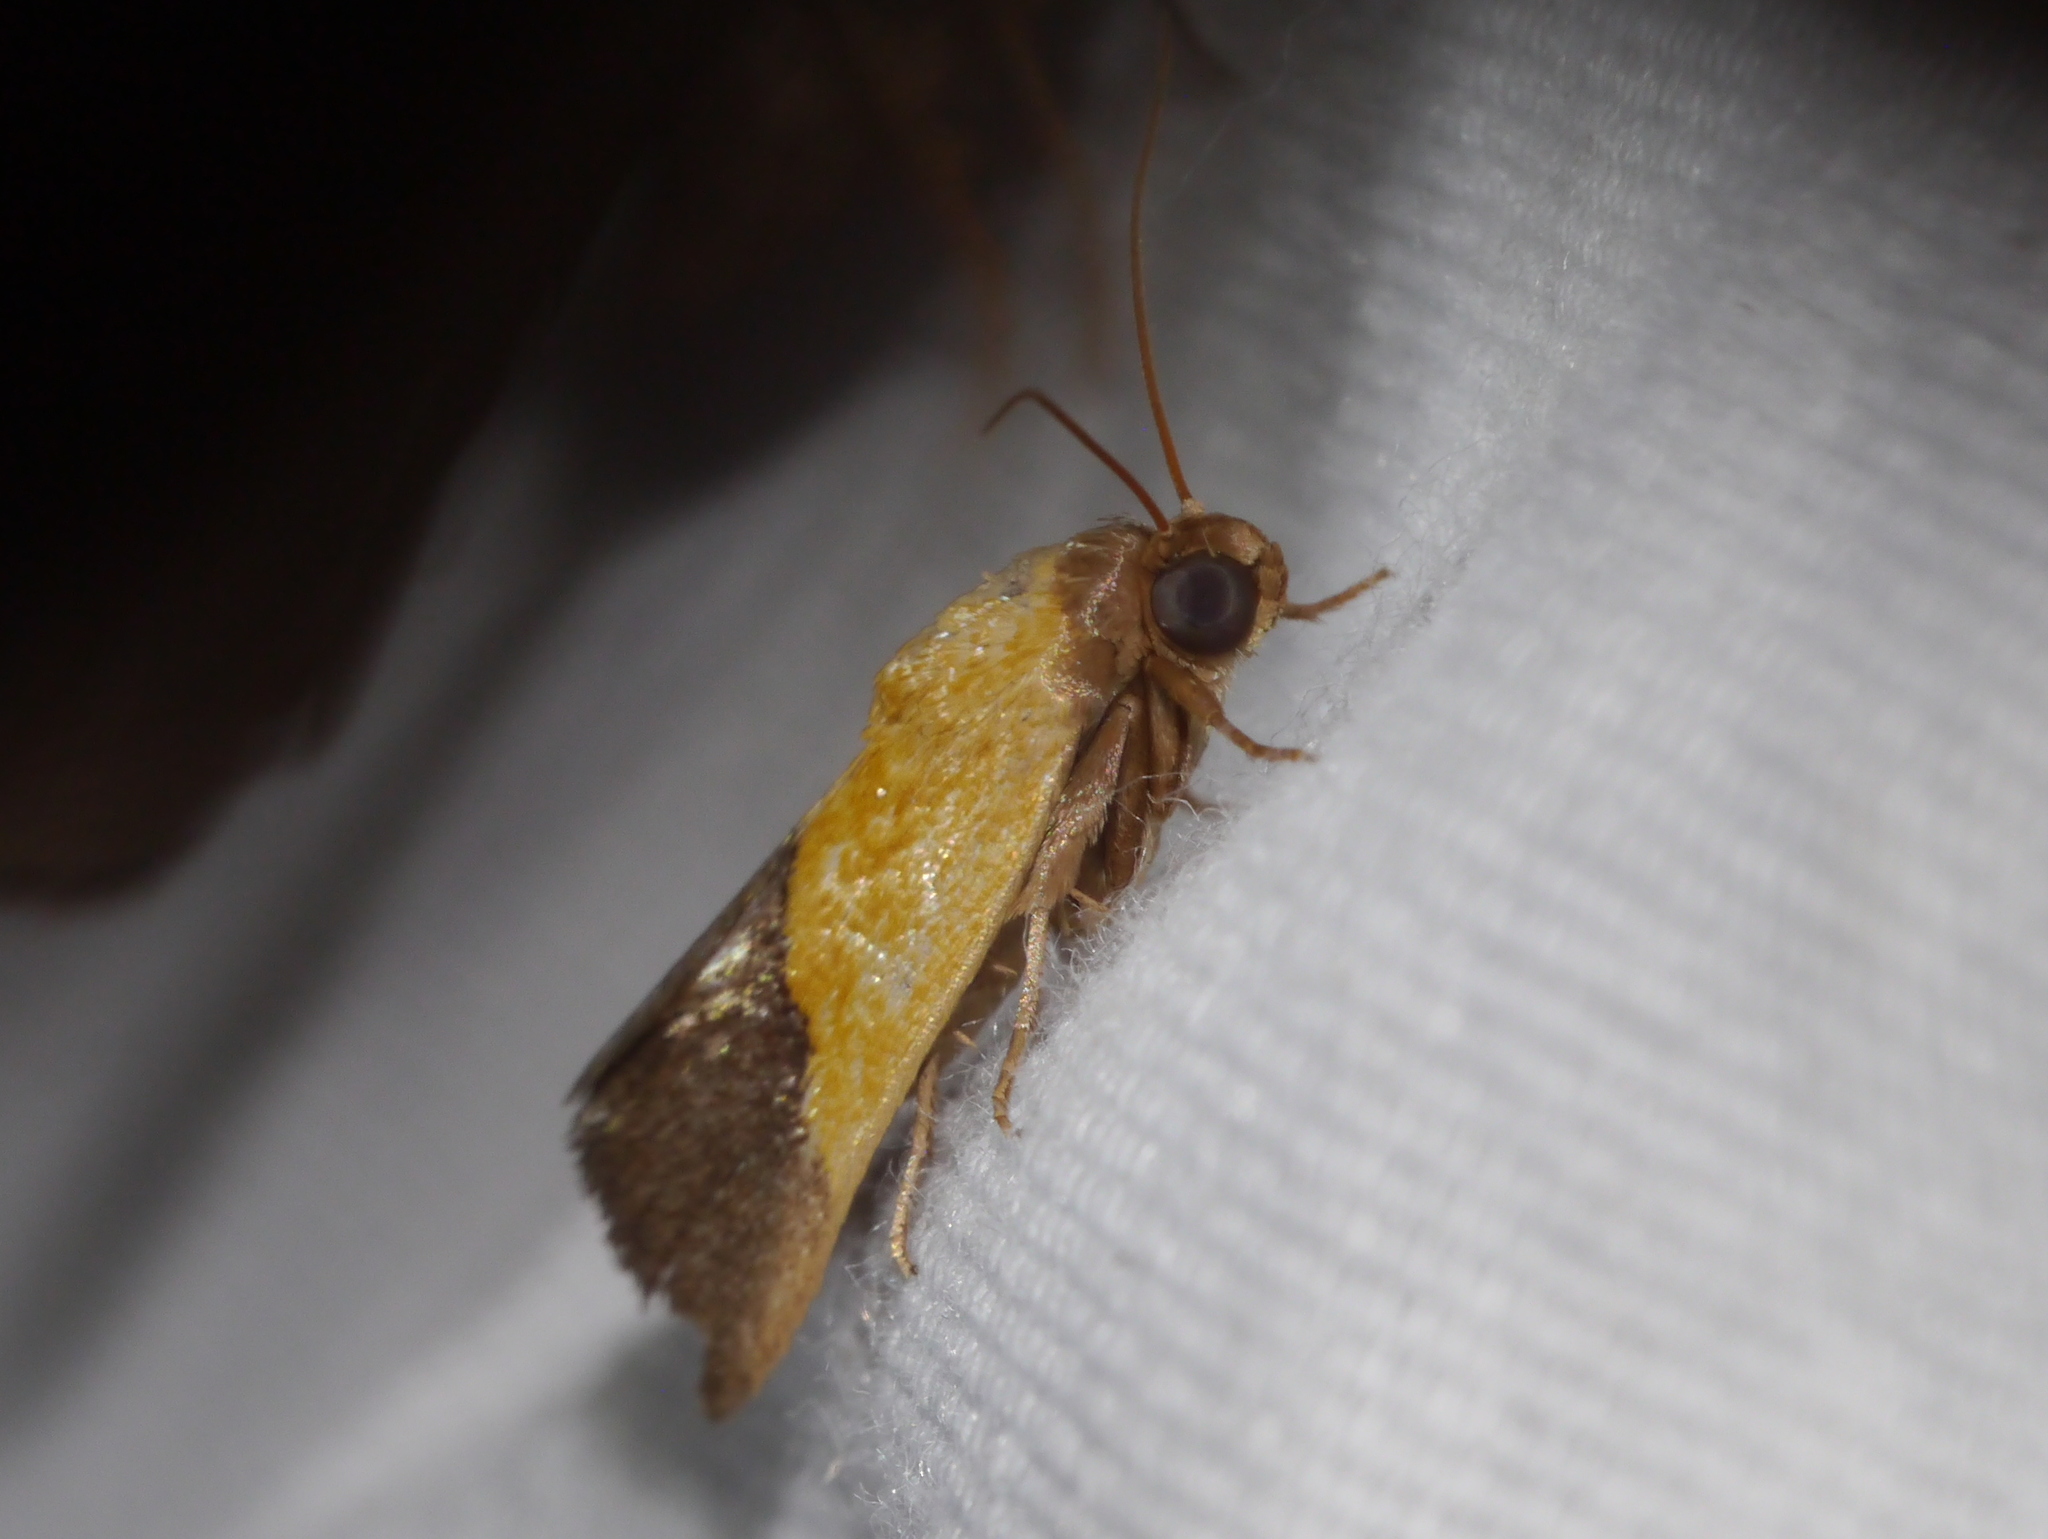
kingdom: Animalia
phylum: Arthropoda
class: Insecta
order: Lepidoptera
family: Noctuidae
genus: Acontia
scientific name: Acontia semiflava
